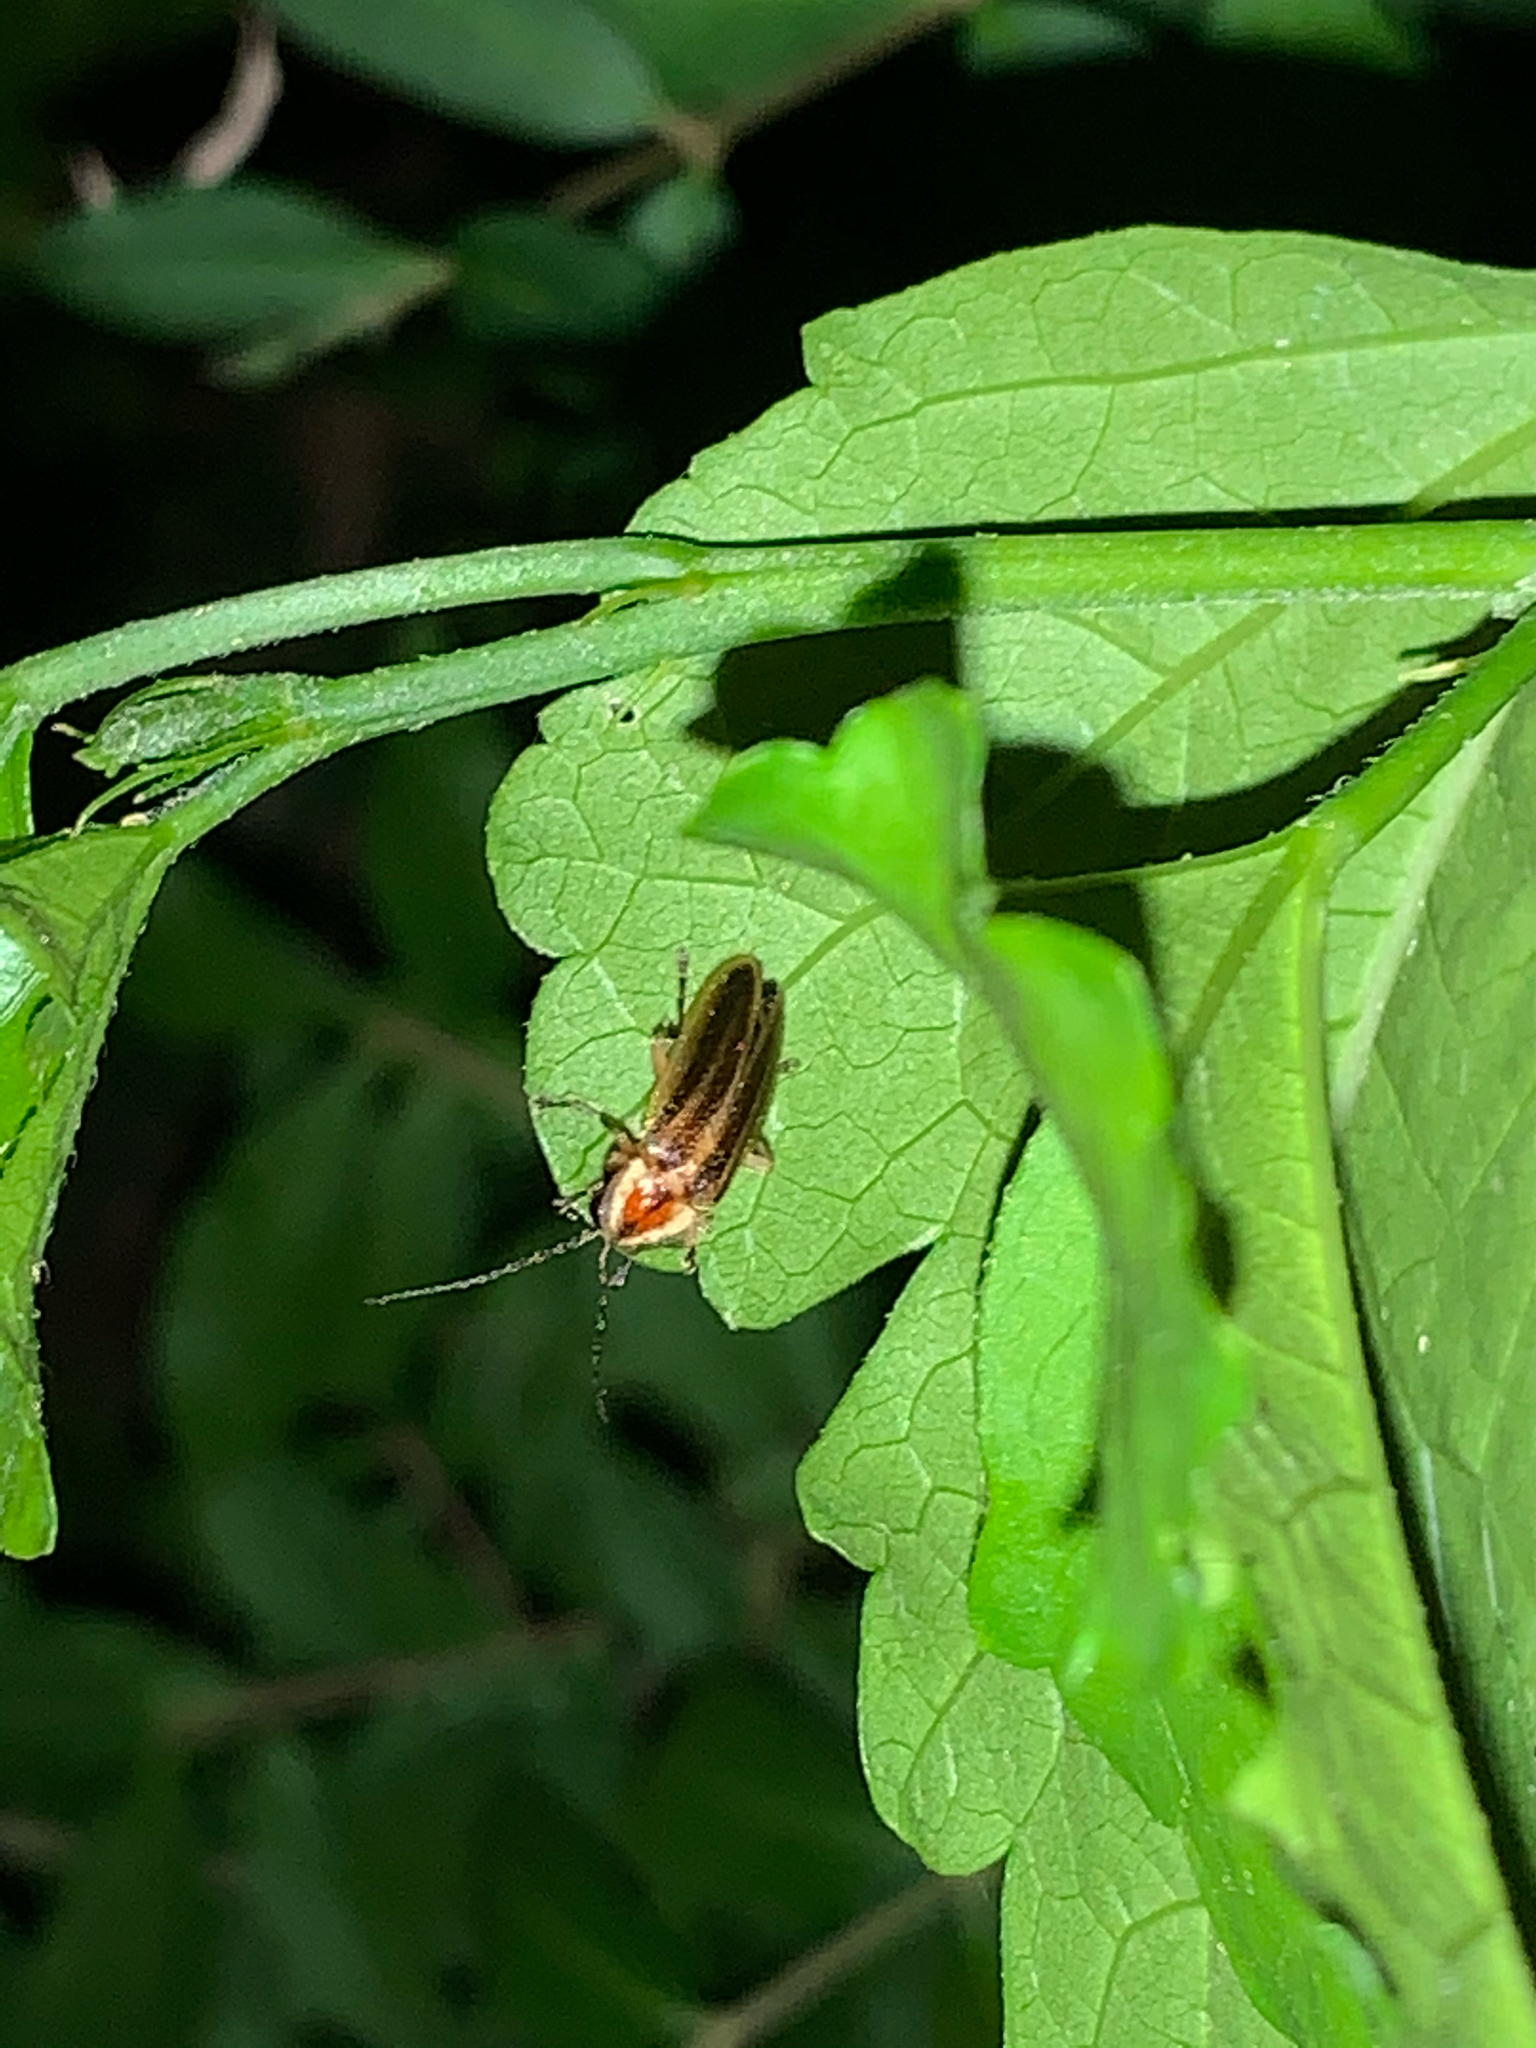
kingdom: Animalia
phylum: Arthropoda
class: Insecta
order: Coleoptera
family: Lampyridae
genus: Photuris
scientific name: Photuris
